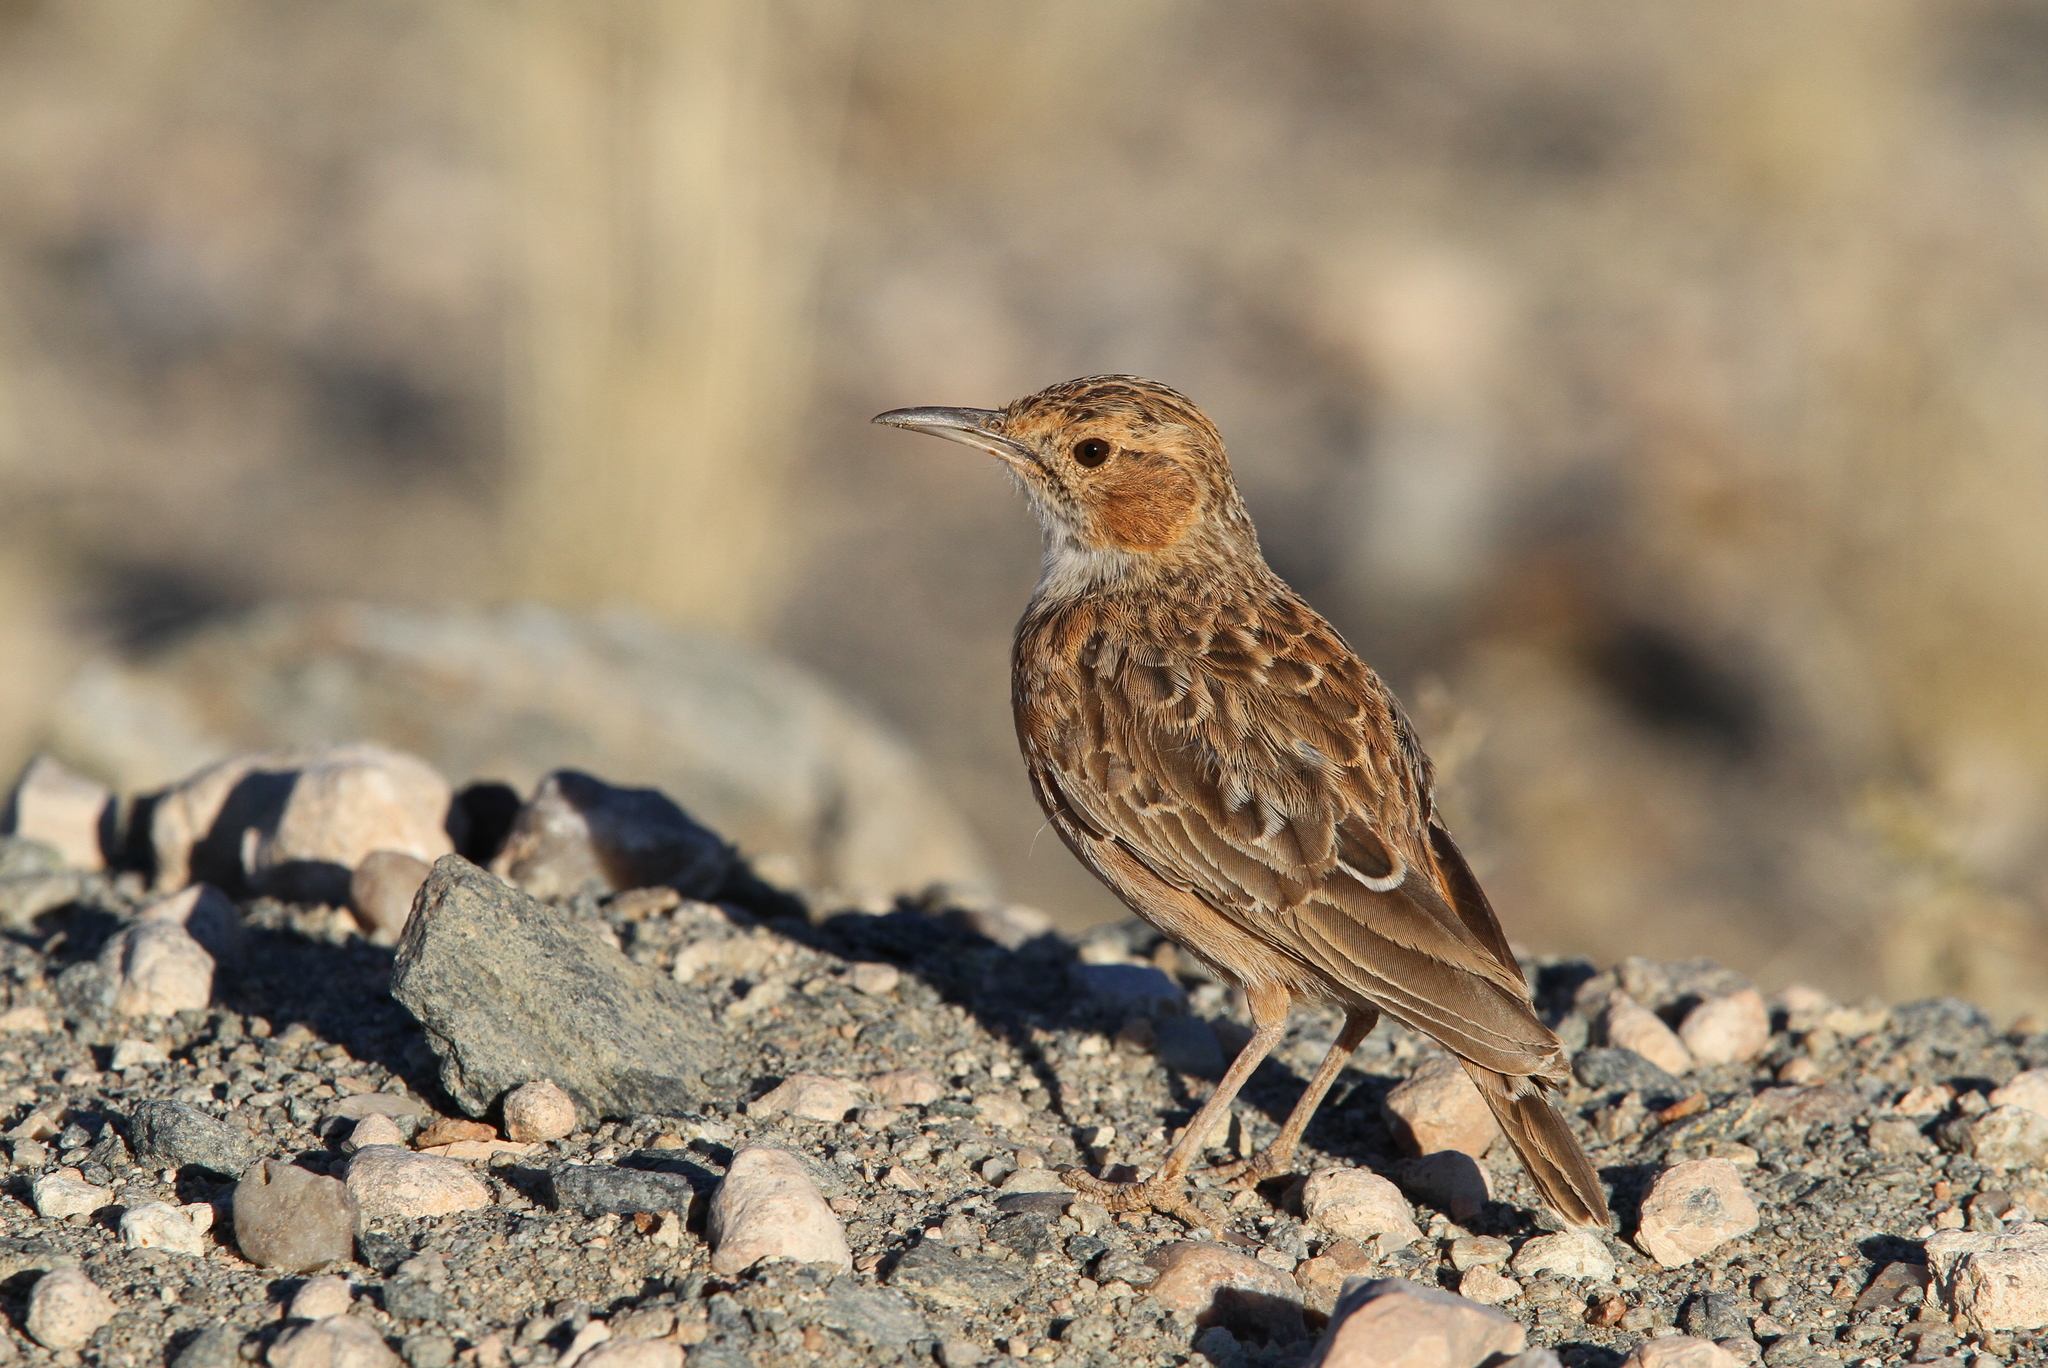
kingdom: Animalia
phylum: Chordata
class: Aves
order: Passeriformes
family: Alaudidae
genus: Chersomanes
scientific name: Chersomanes albofasciata
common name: Spike-heeled lark
